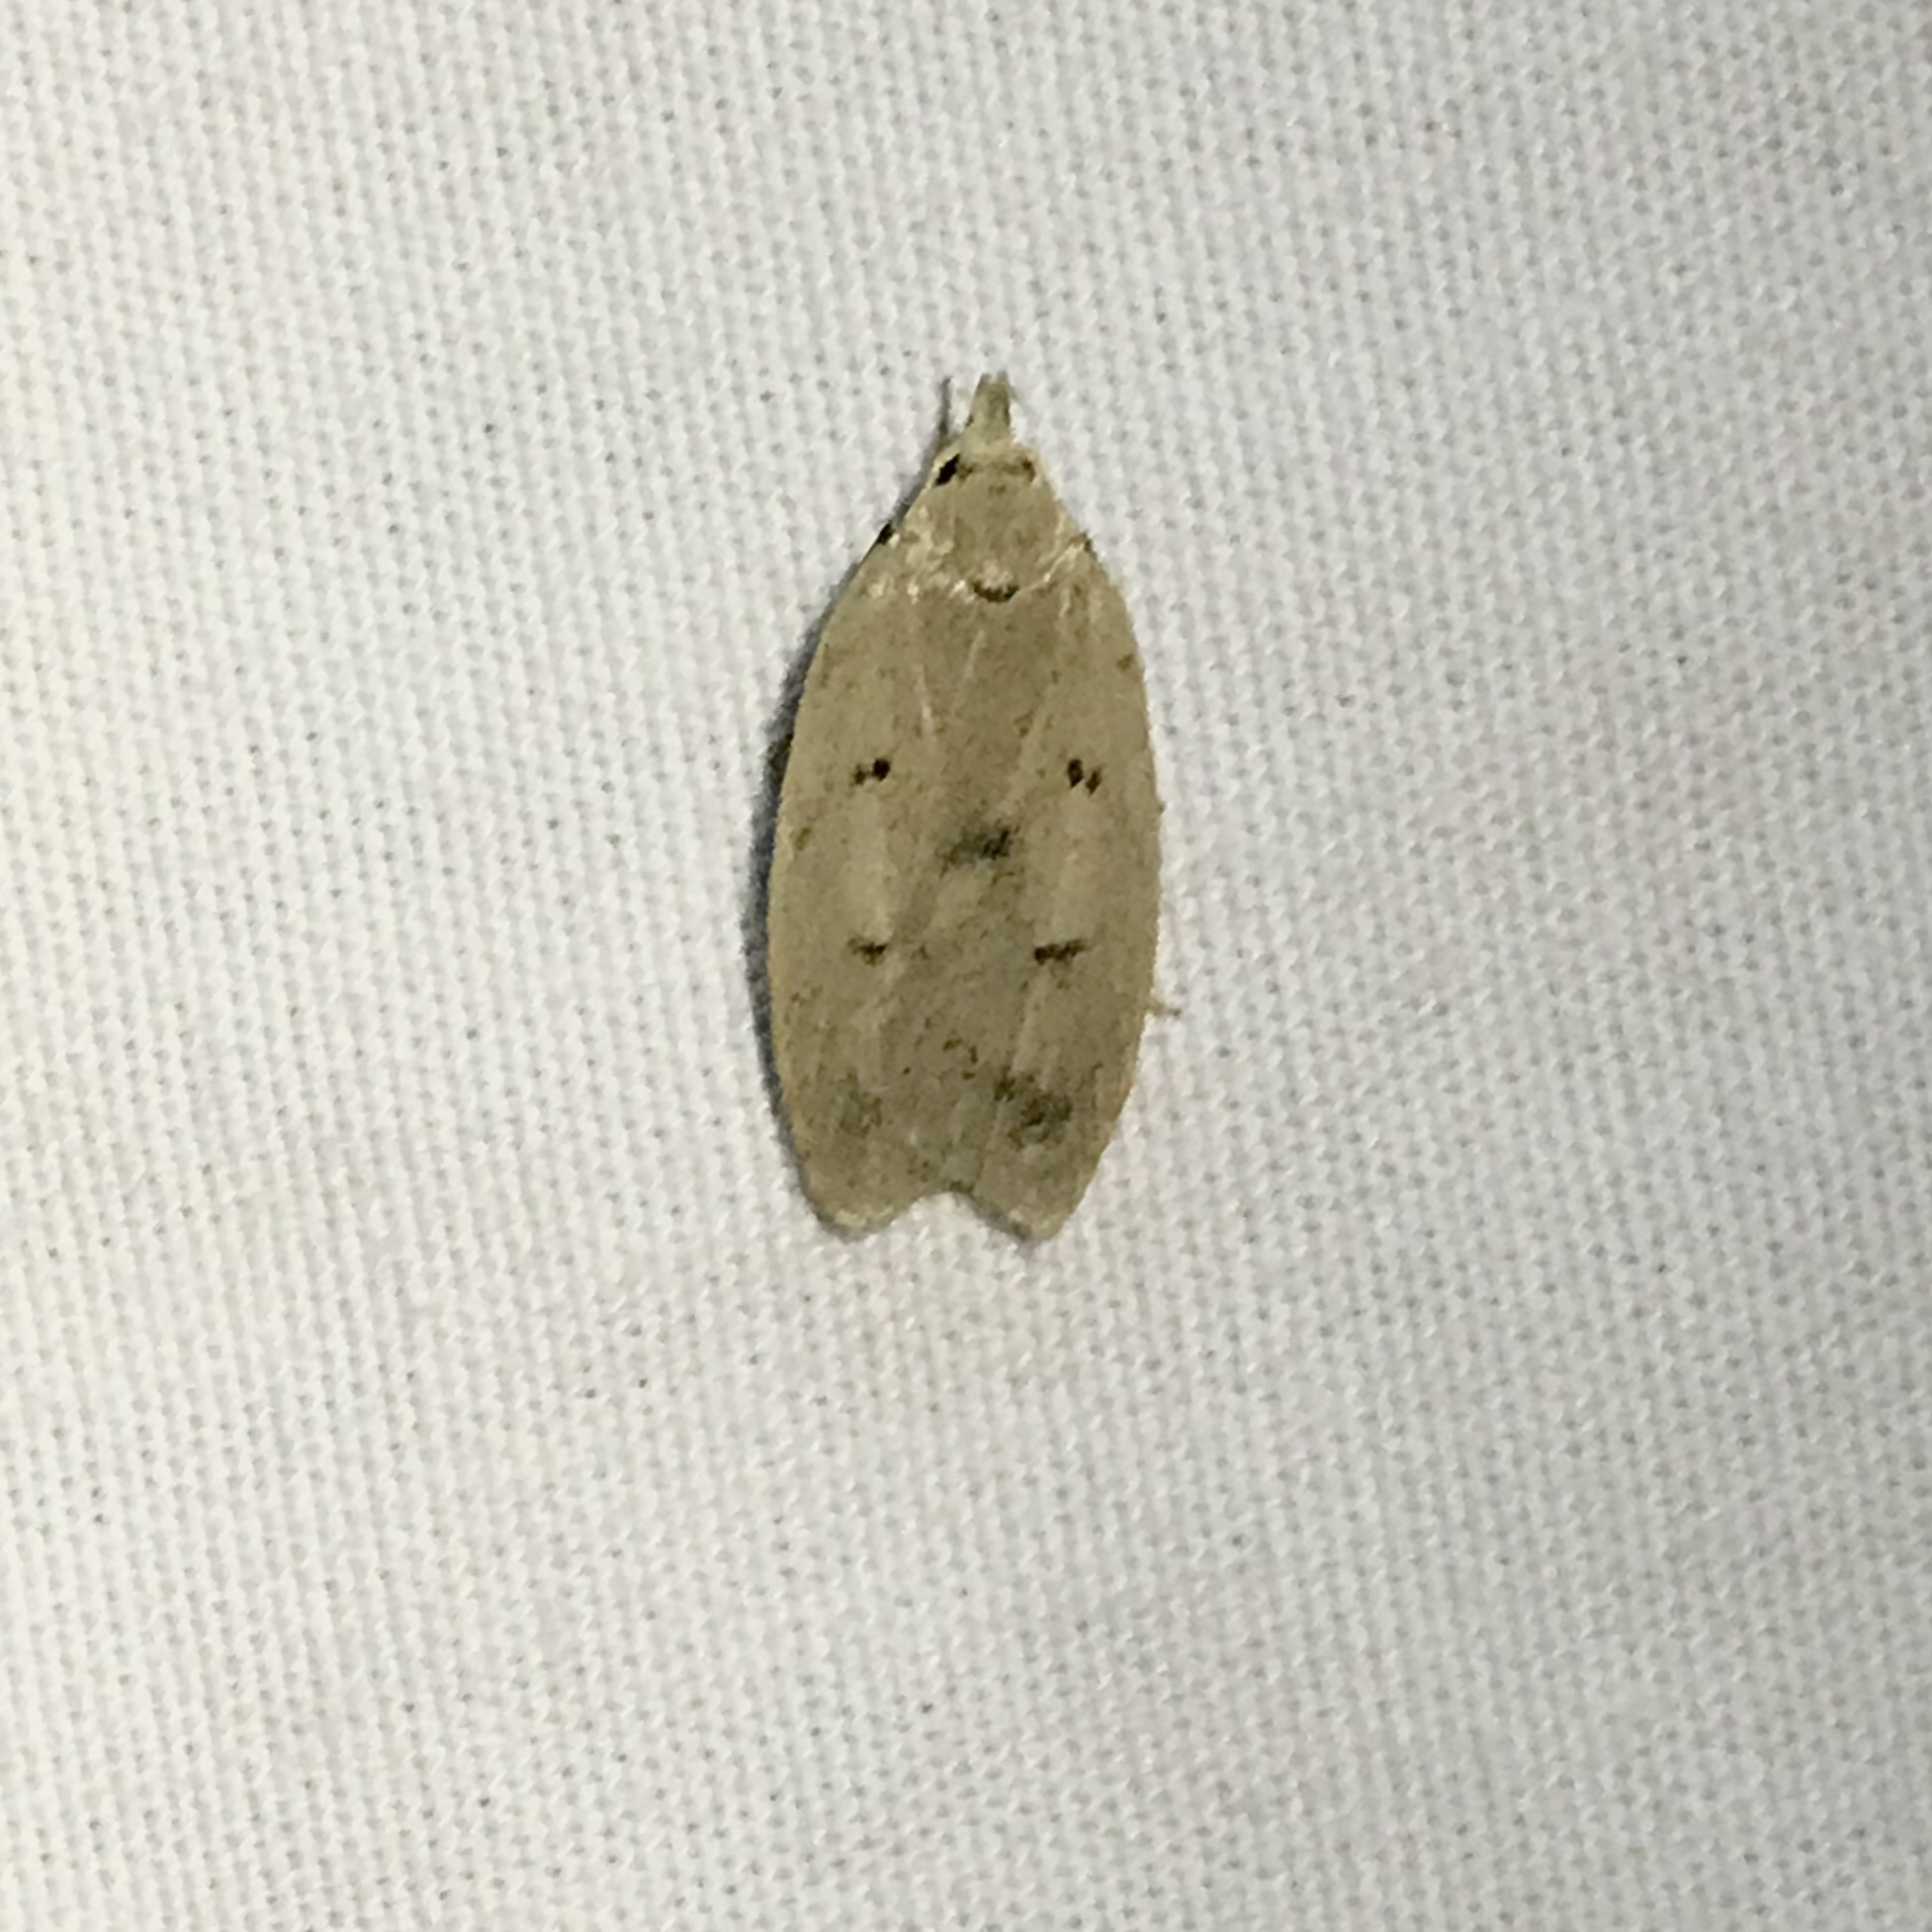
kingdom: Animalia
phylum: Arthropoda
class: Insecta
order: Lepidoptera
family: Peleopodidae
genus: Machimia
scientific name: Machimia tentoriferella
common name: Gold-striped leaftier moth
